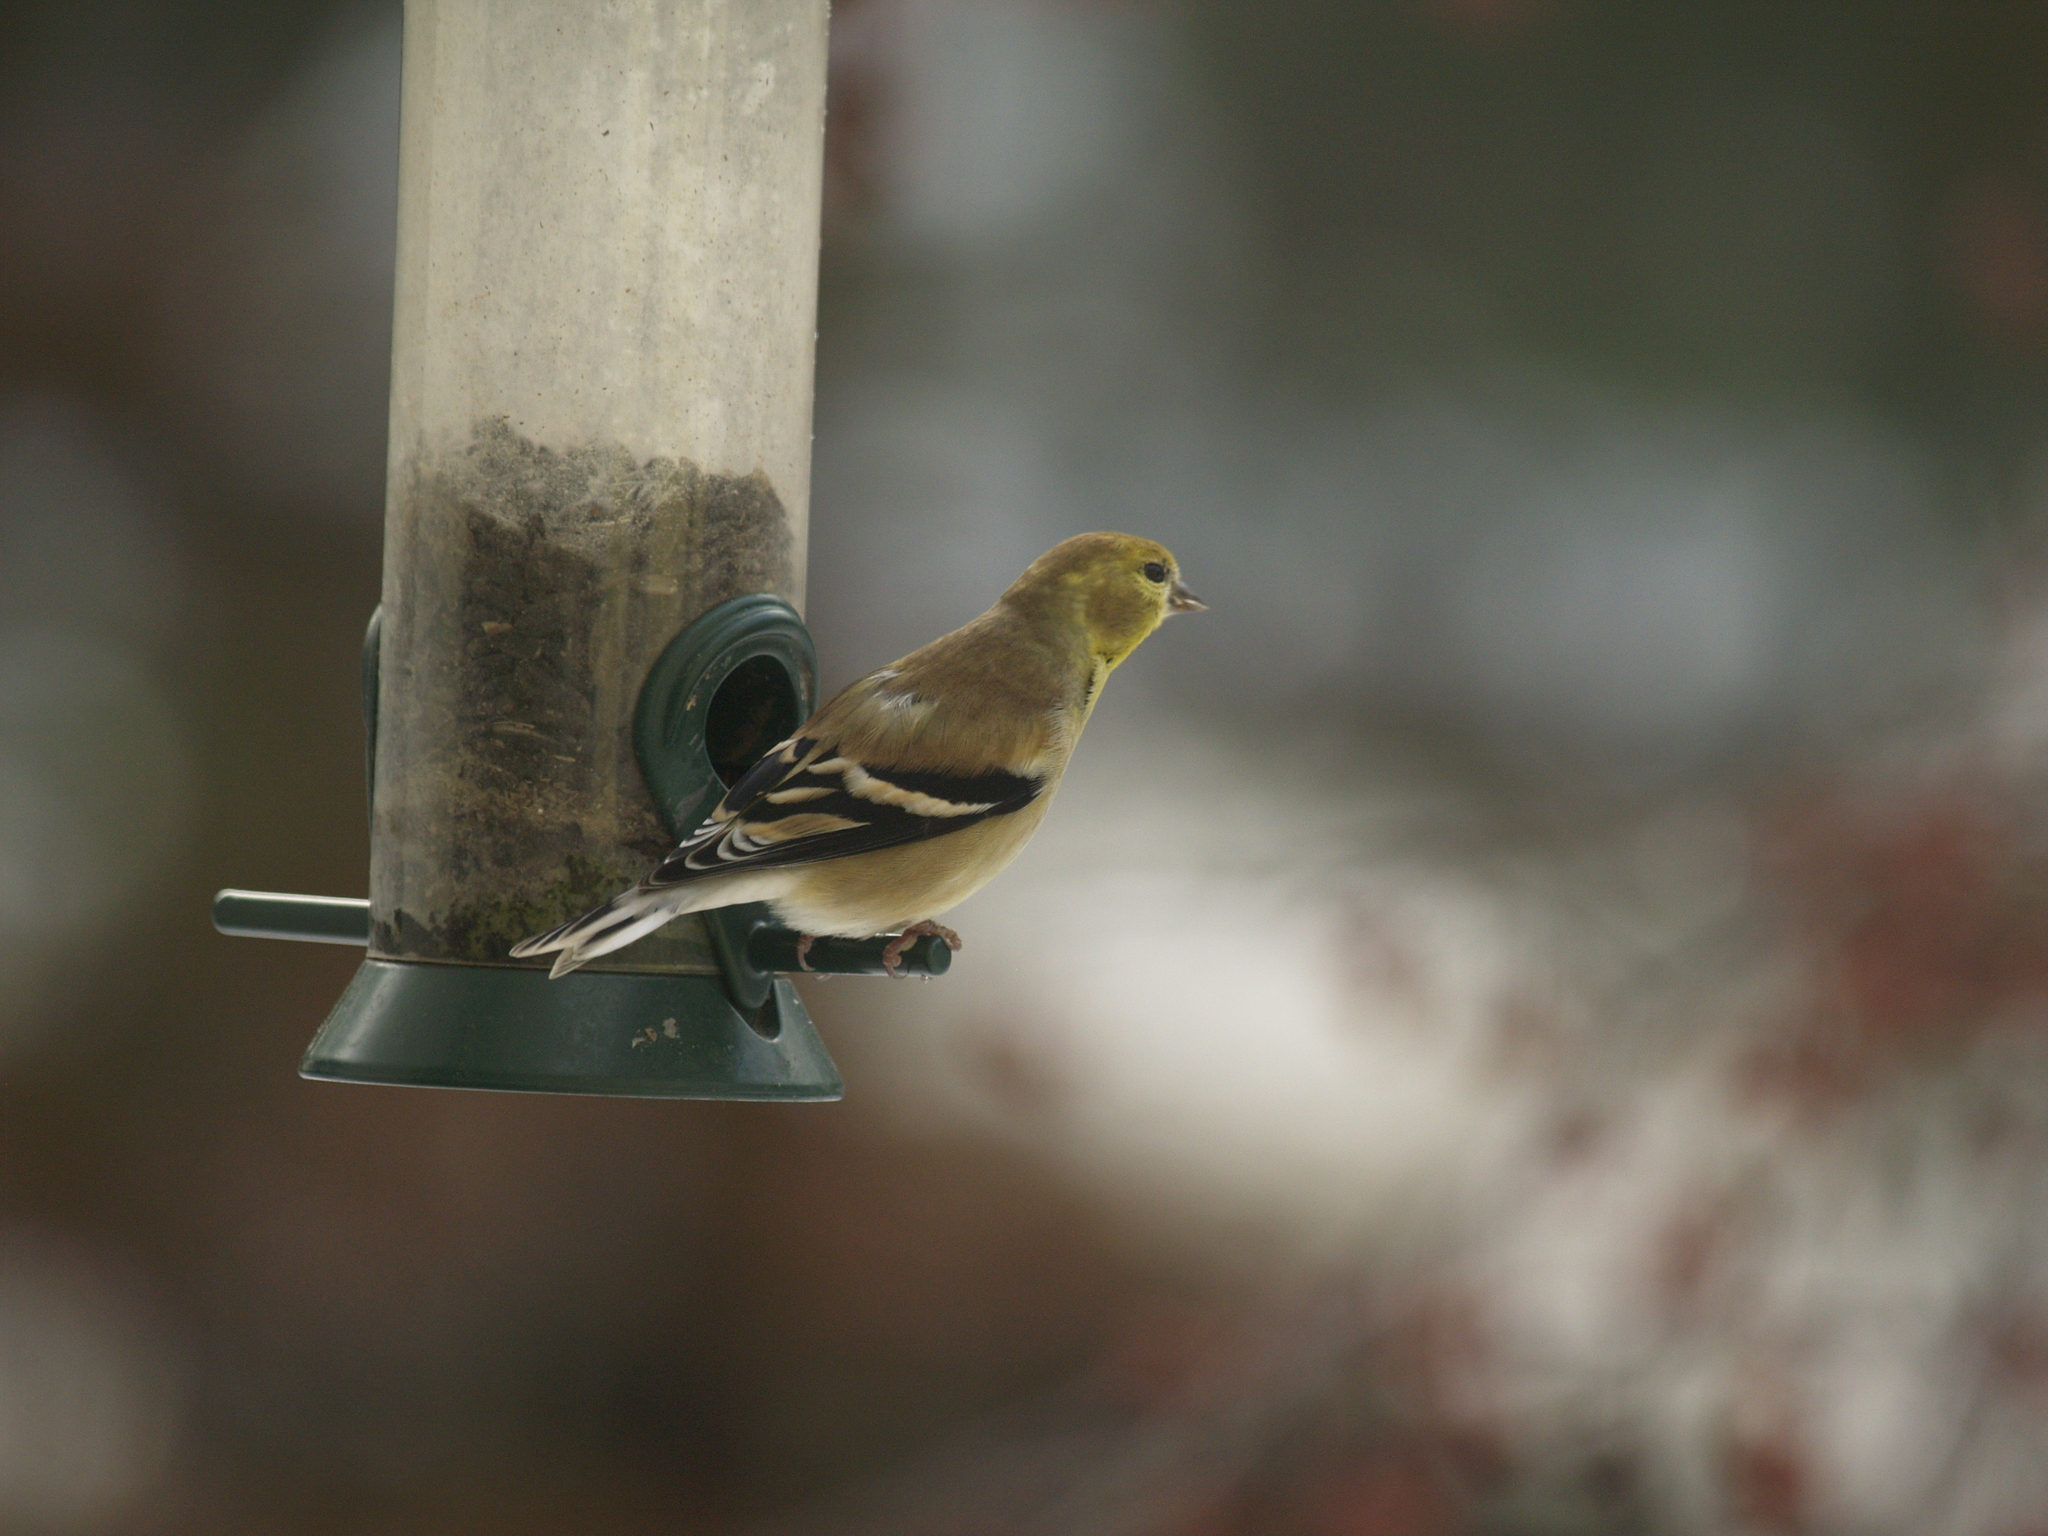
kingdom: Animalia
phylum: Chordata
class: Aves
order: Passeriformes
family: Fringillidae
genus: Spinus
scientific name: Spinus tristis
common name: American goldfinch
